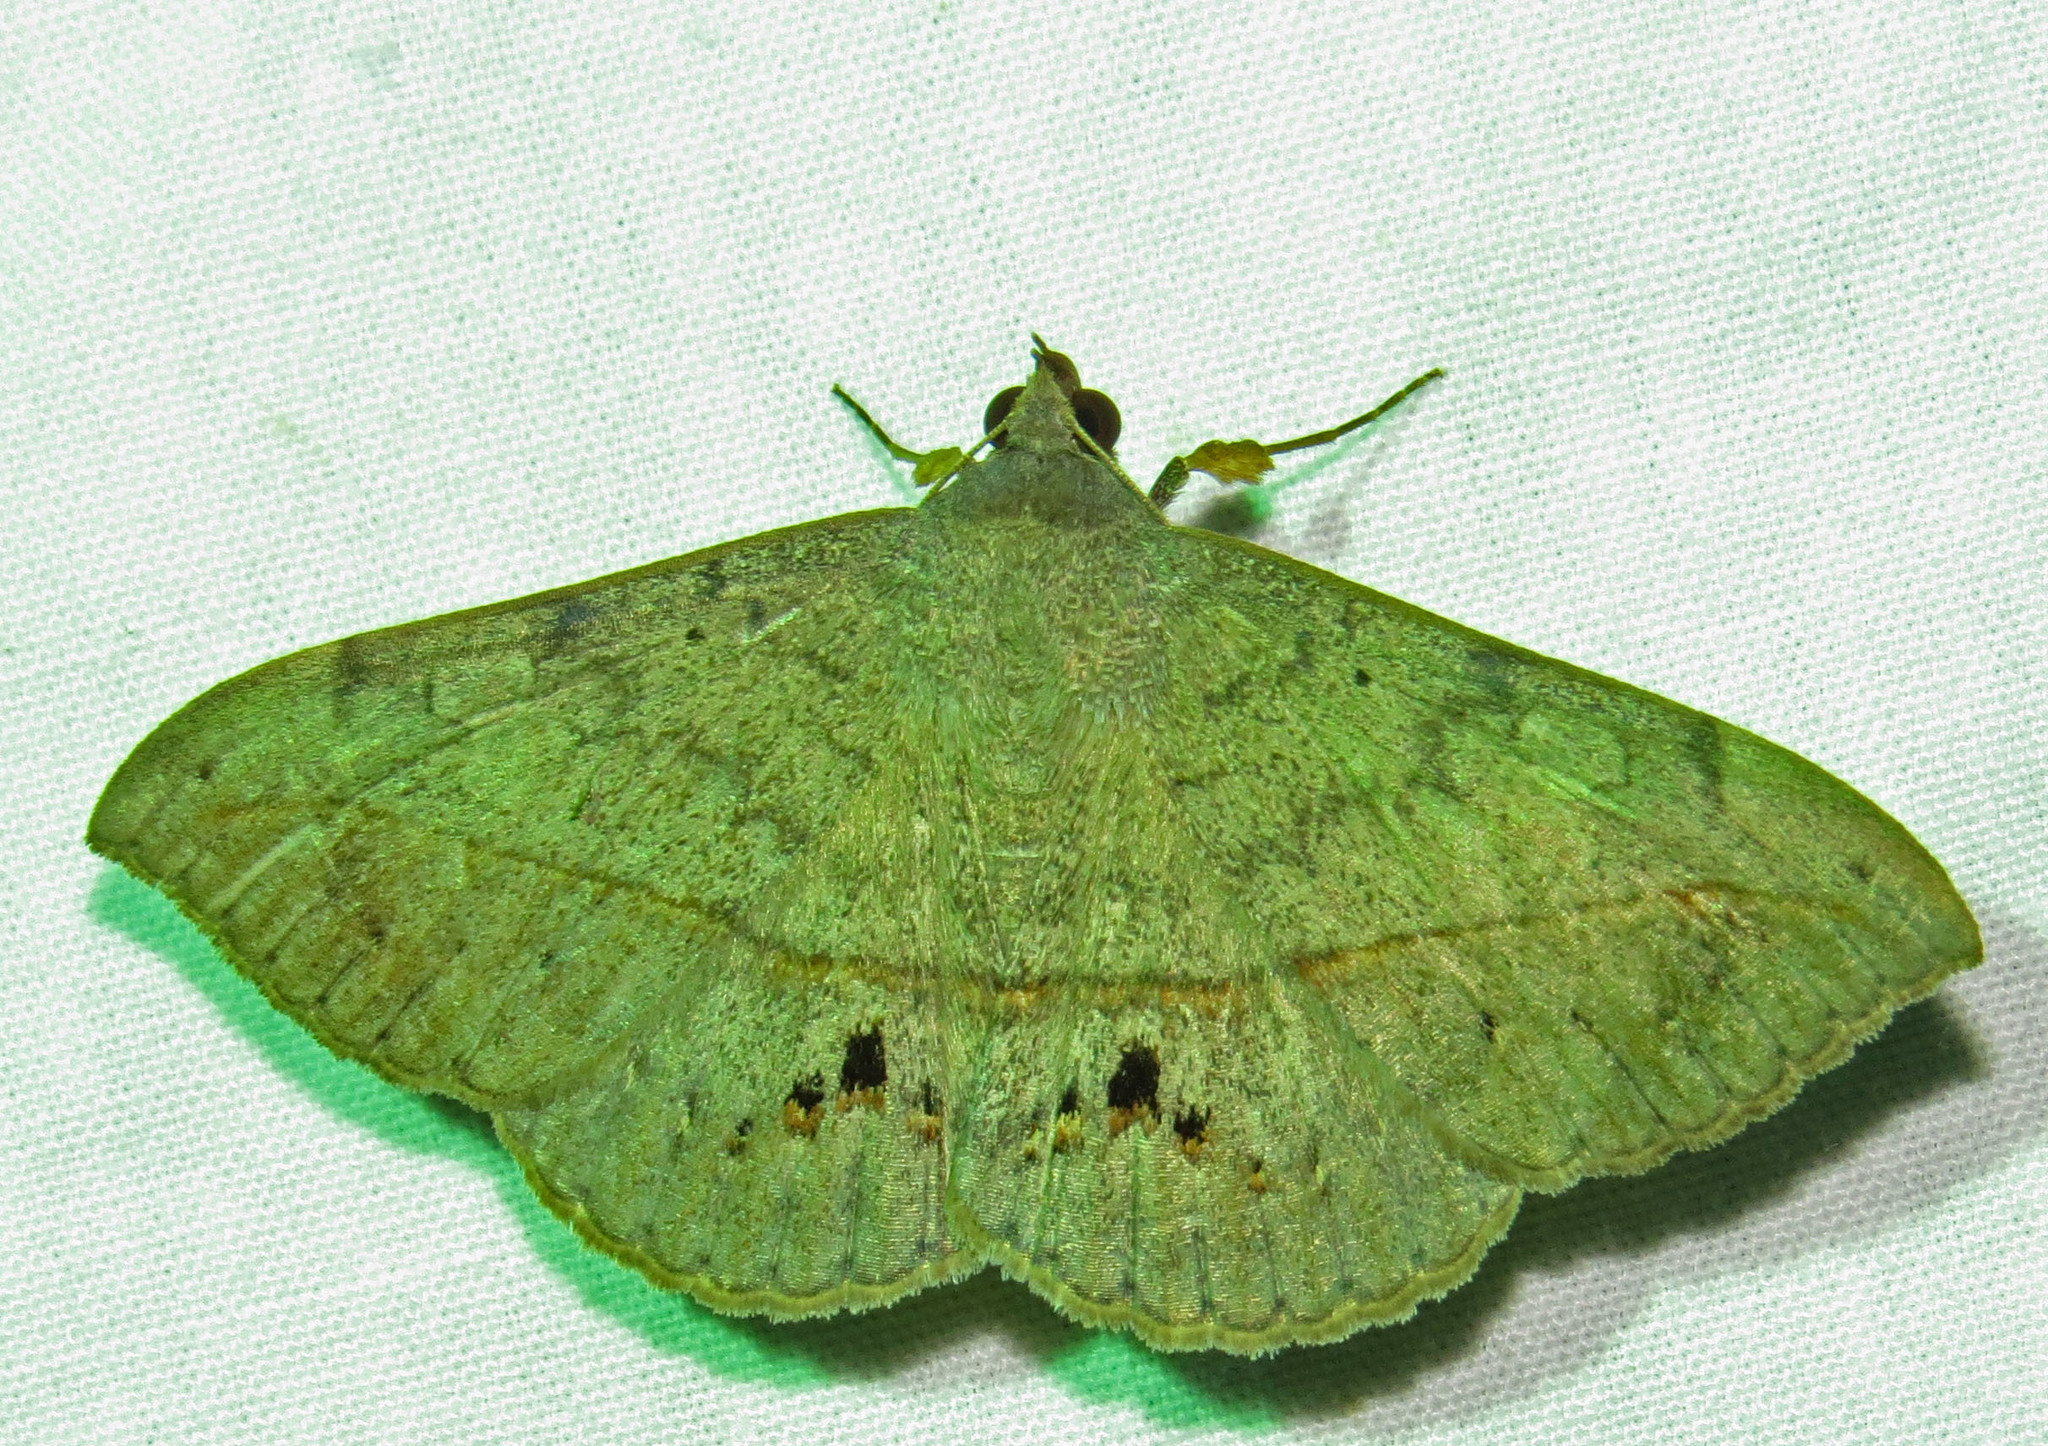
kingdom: Animalia
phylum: Arthropoda
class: Insecta
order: Lepidoptera
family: Erebidae
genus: Anticarsia
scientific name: Anticarsia gemmatalis
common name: Cutworm moth
